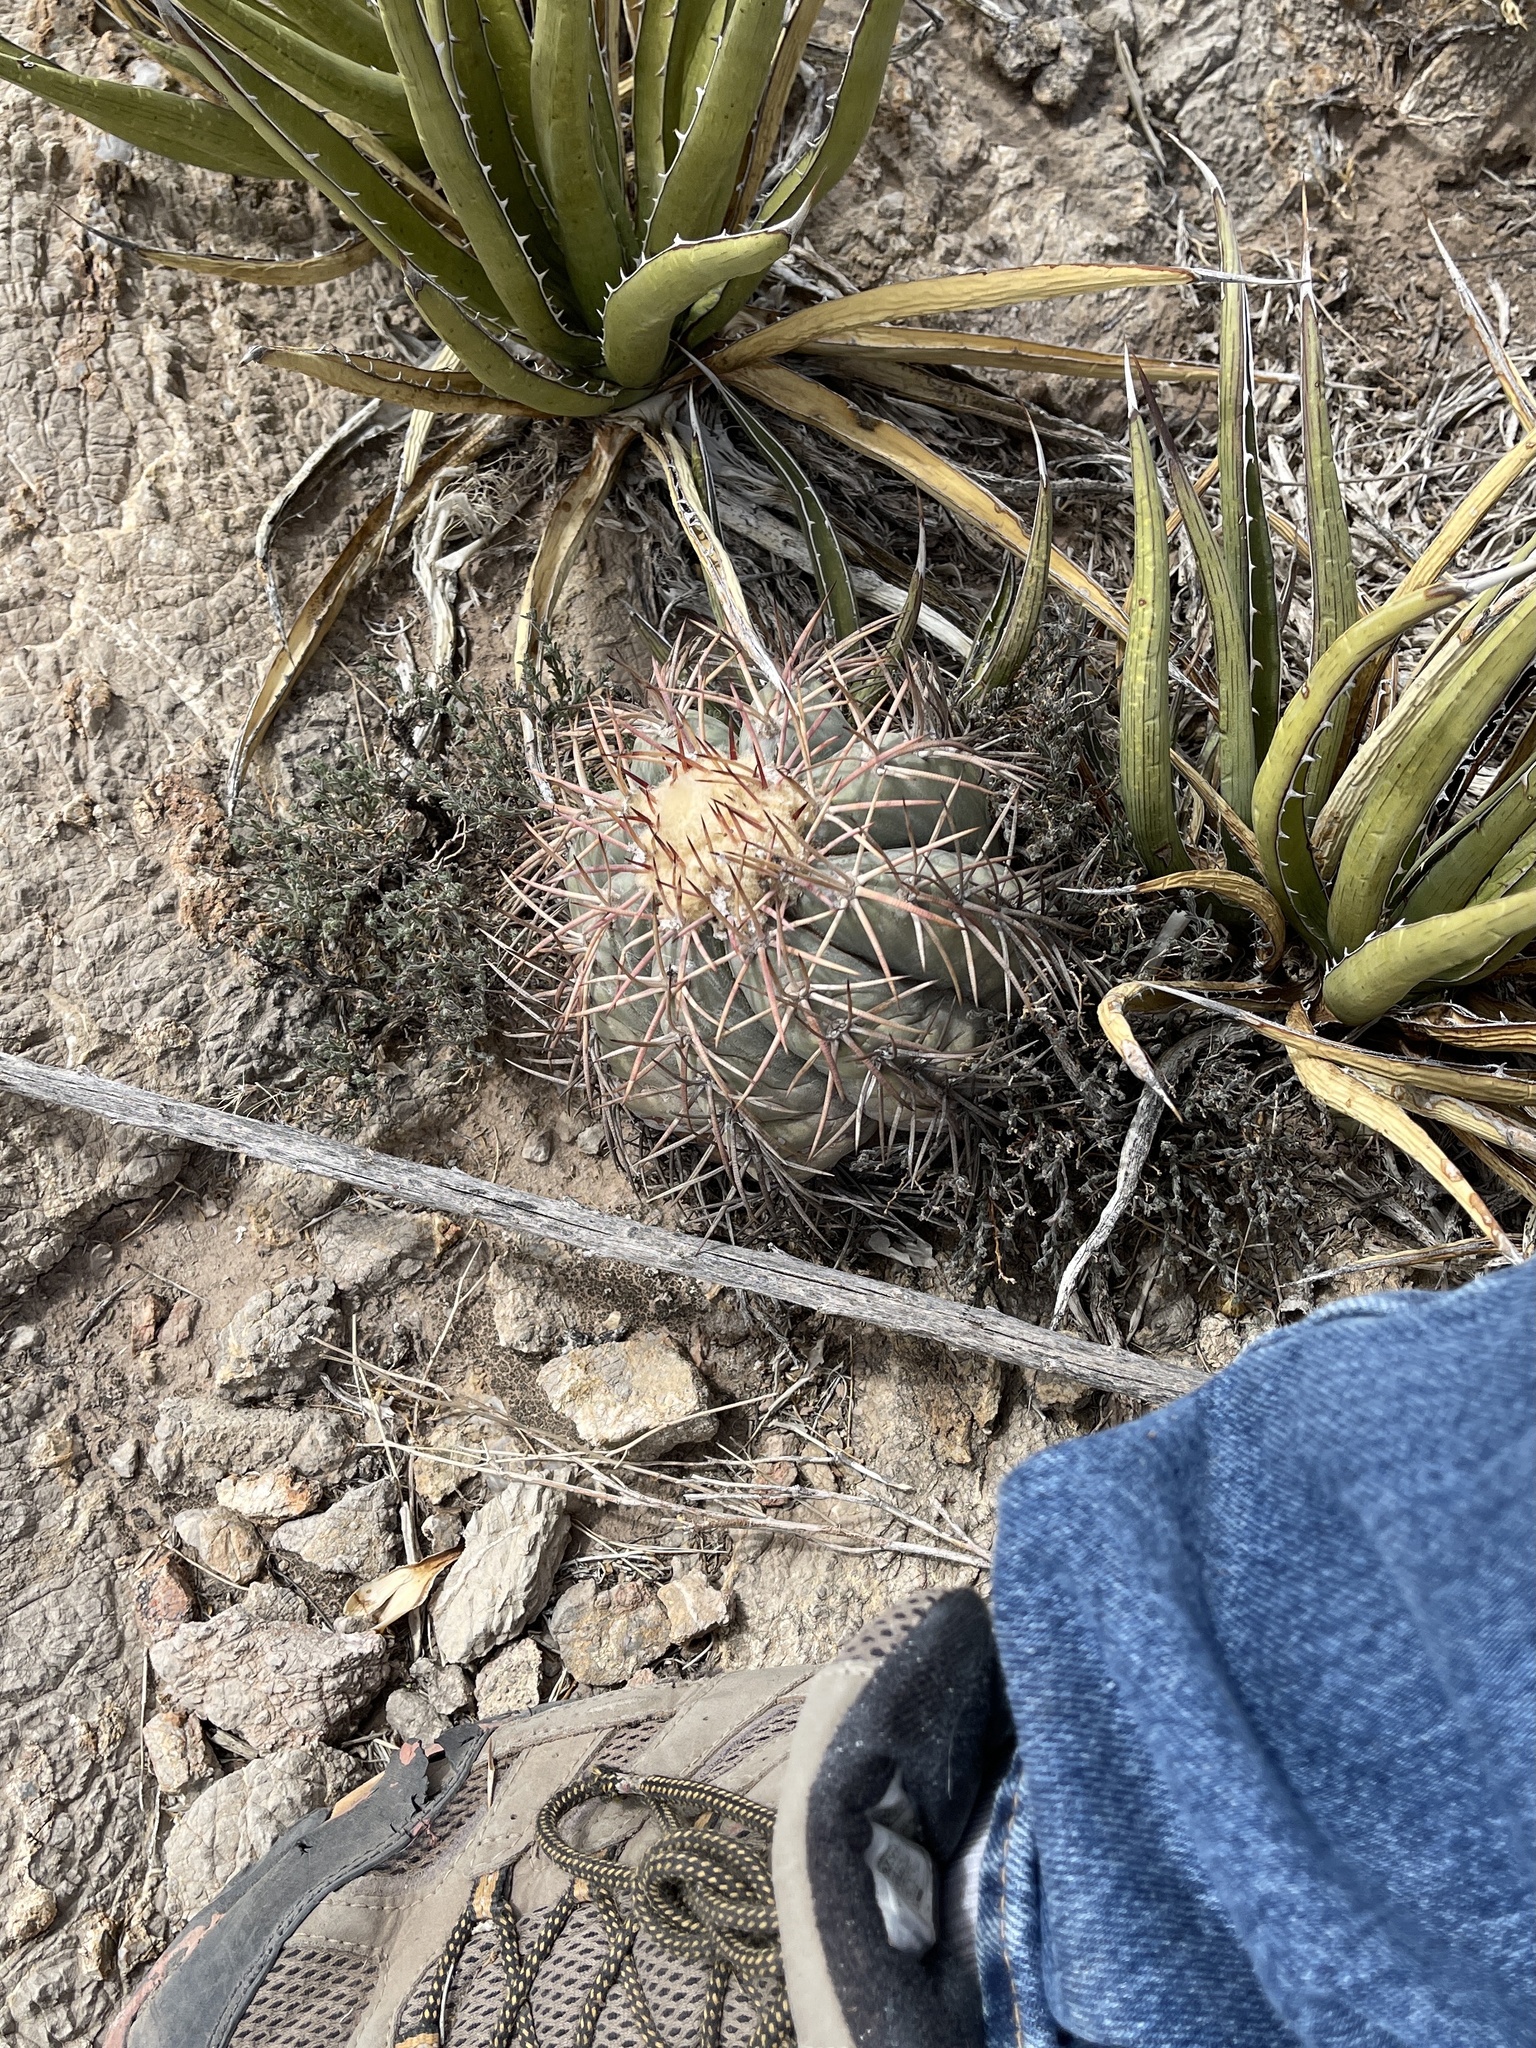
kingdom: Plantae
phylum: Tracheophyta
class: Magnoliopsida
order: Caryophyllales
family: Cactaceae
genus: Echinocactus
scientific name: Echinocactus horizonthalonius
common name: Devilshead
